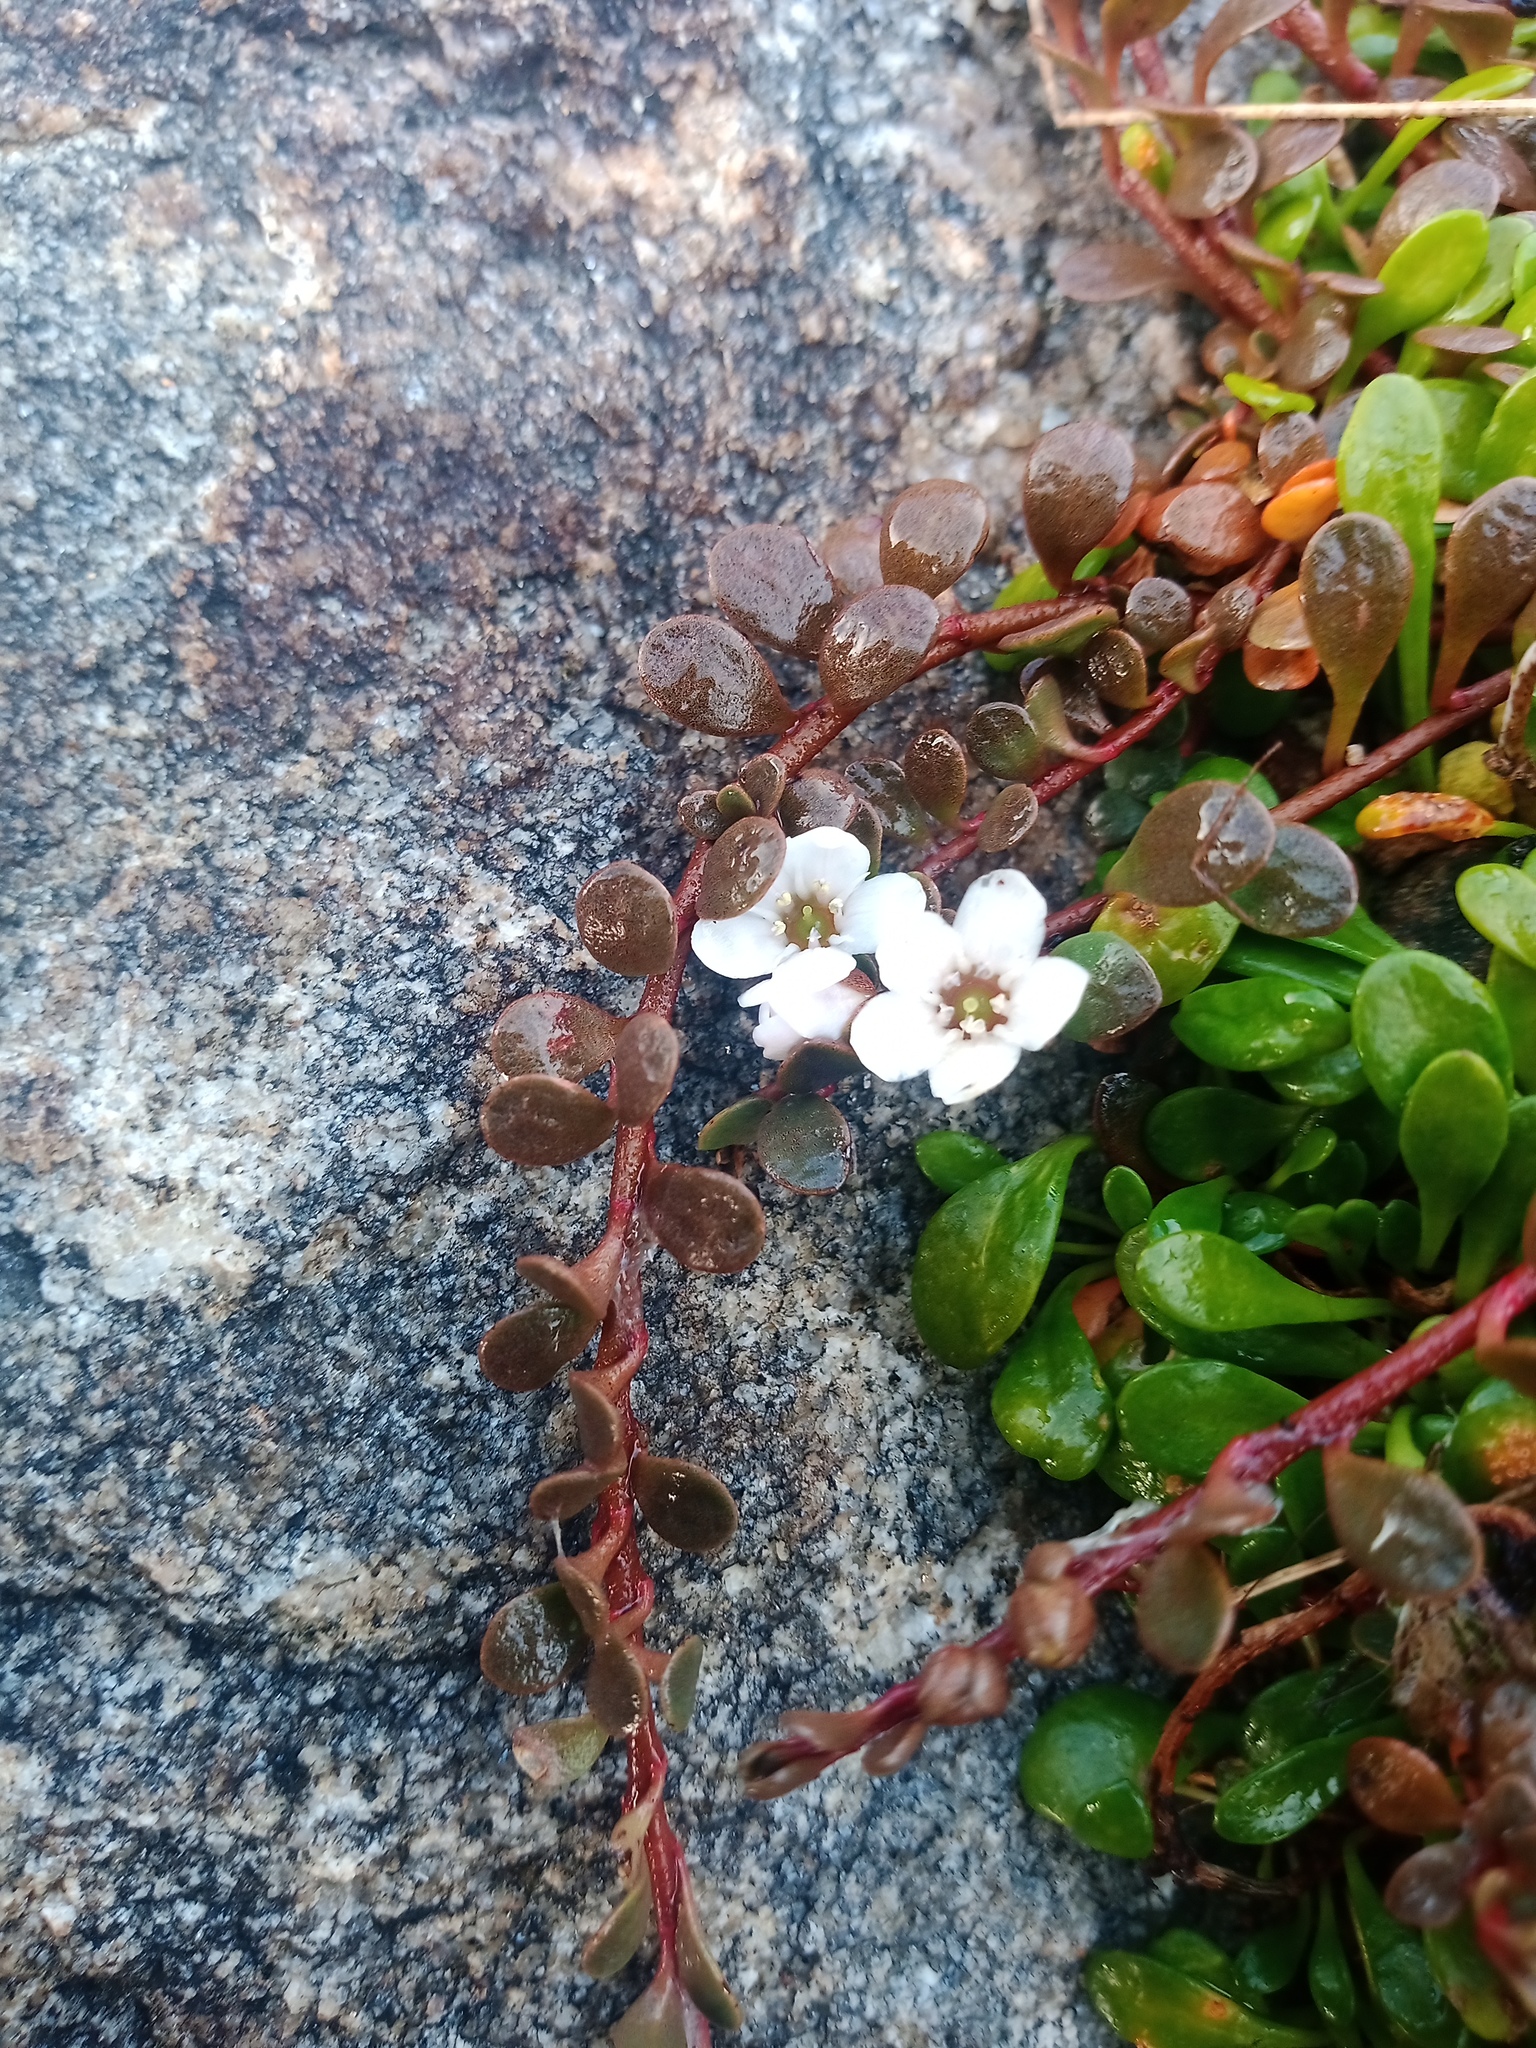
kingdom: Plantae
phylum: Tracheophyta
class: Magnoliopsida
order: Ericales
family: Primulaceae
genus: Samolus
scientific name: Samolus repens
